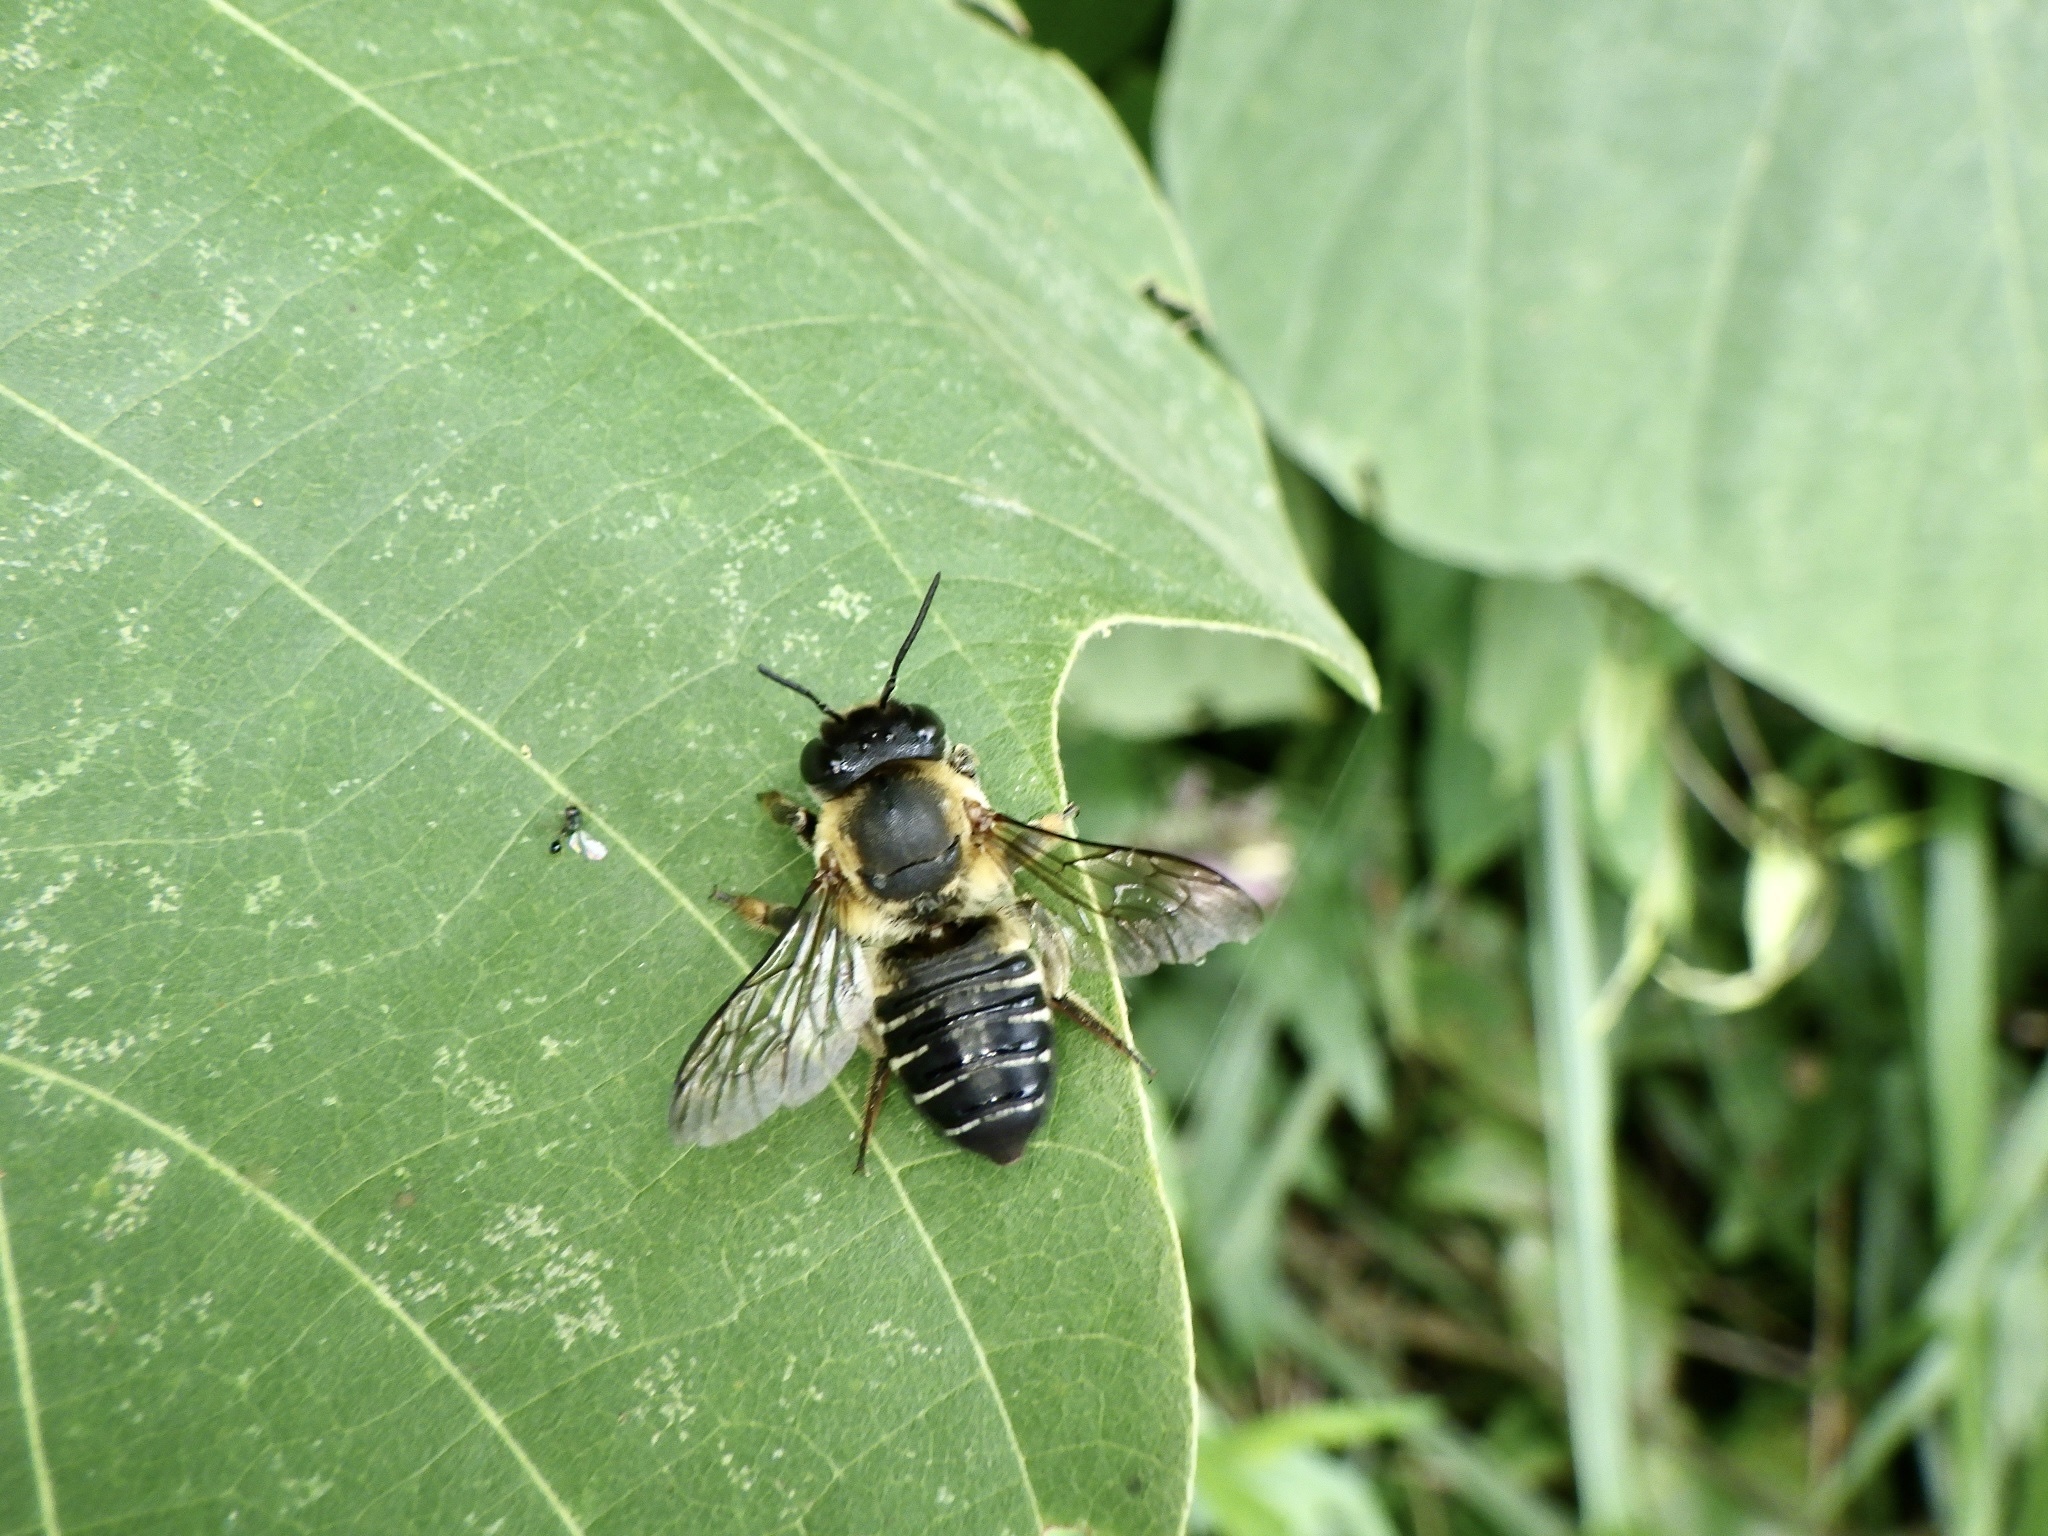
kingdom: Animalia
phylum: Arthropoda
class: Insecta
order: Hymenoptera
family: Megachilidae
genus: Megachile
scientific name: Megachile humilis
